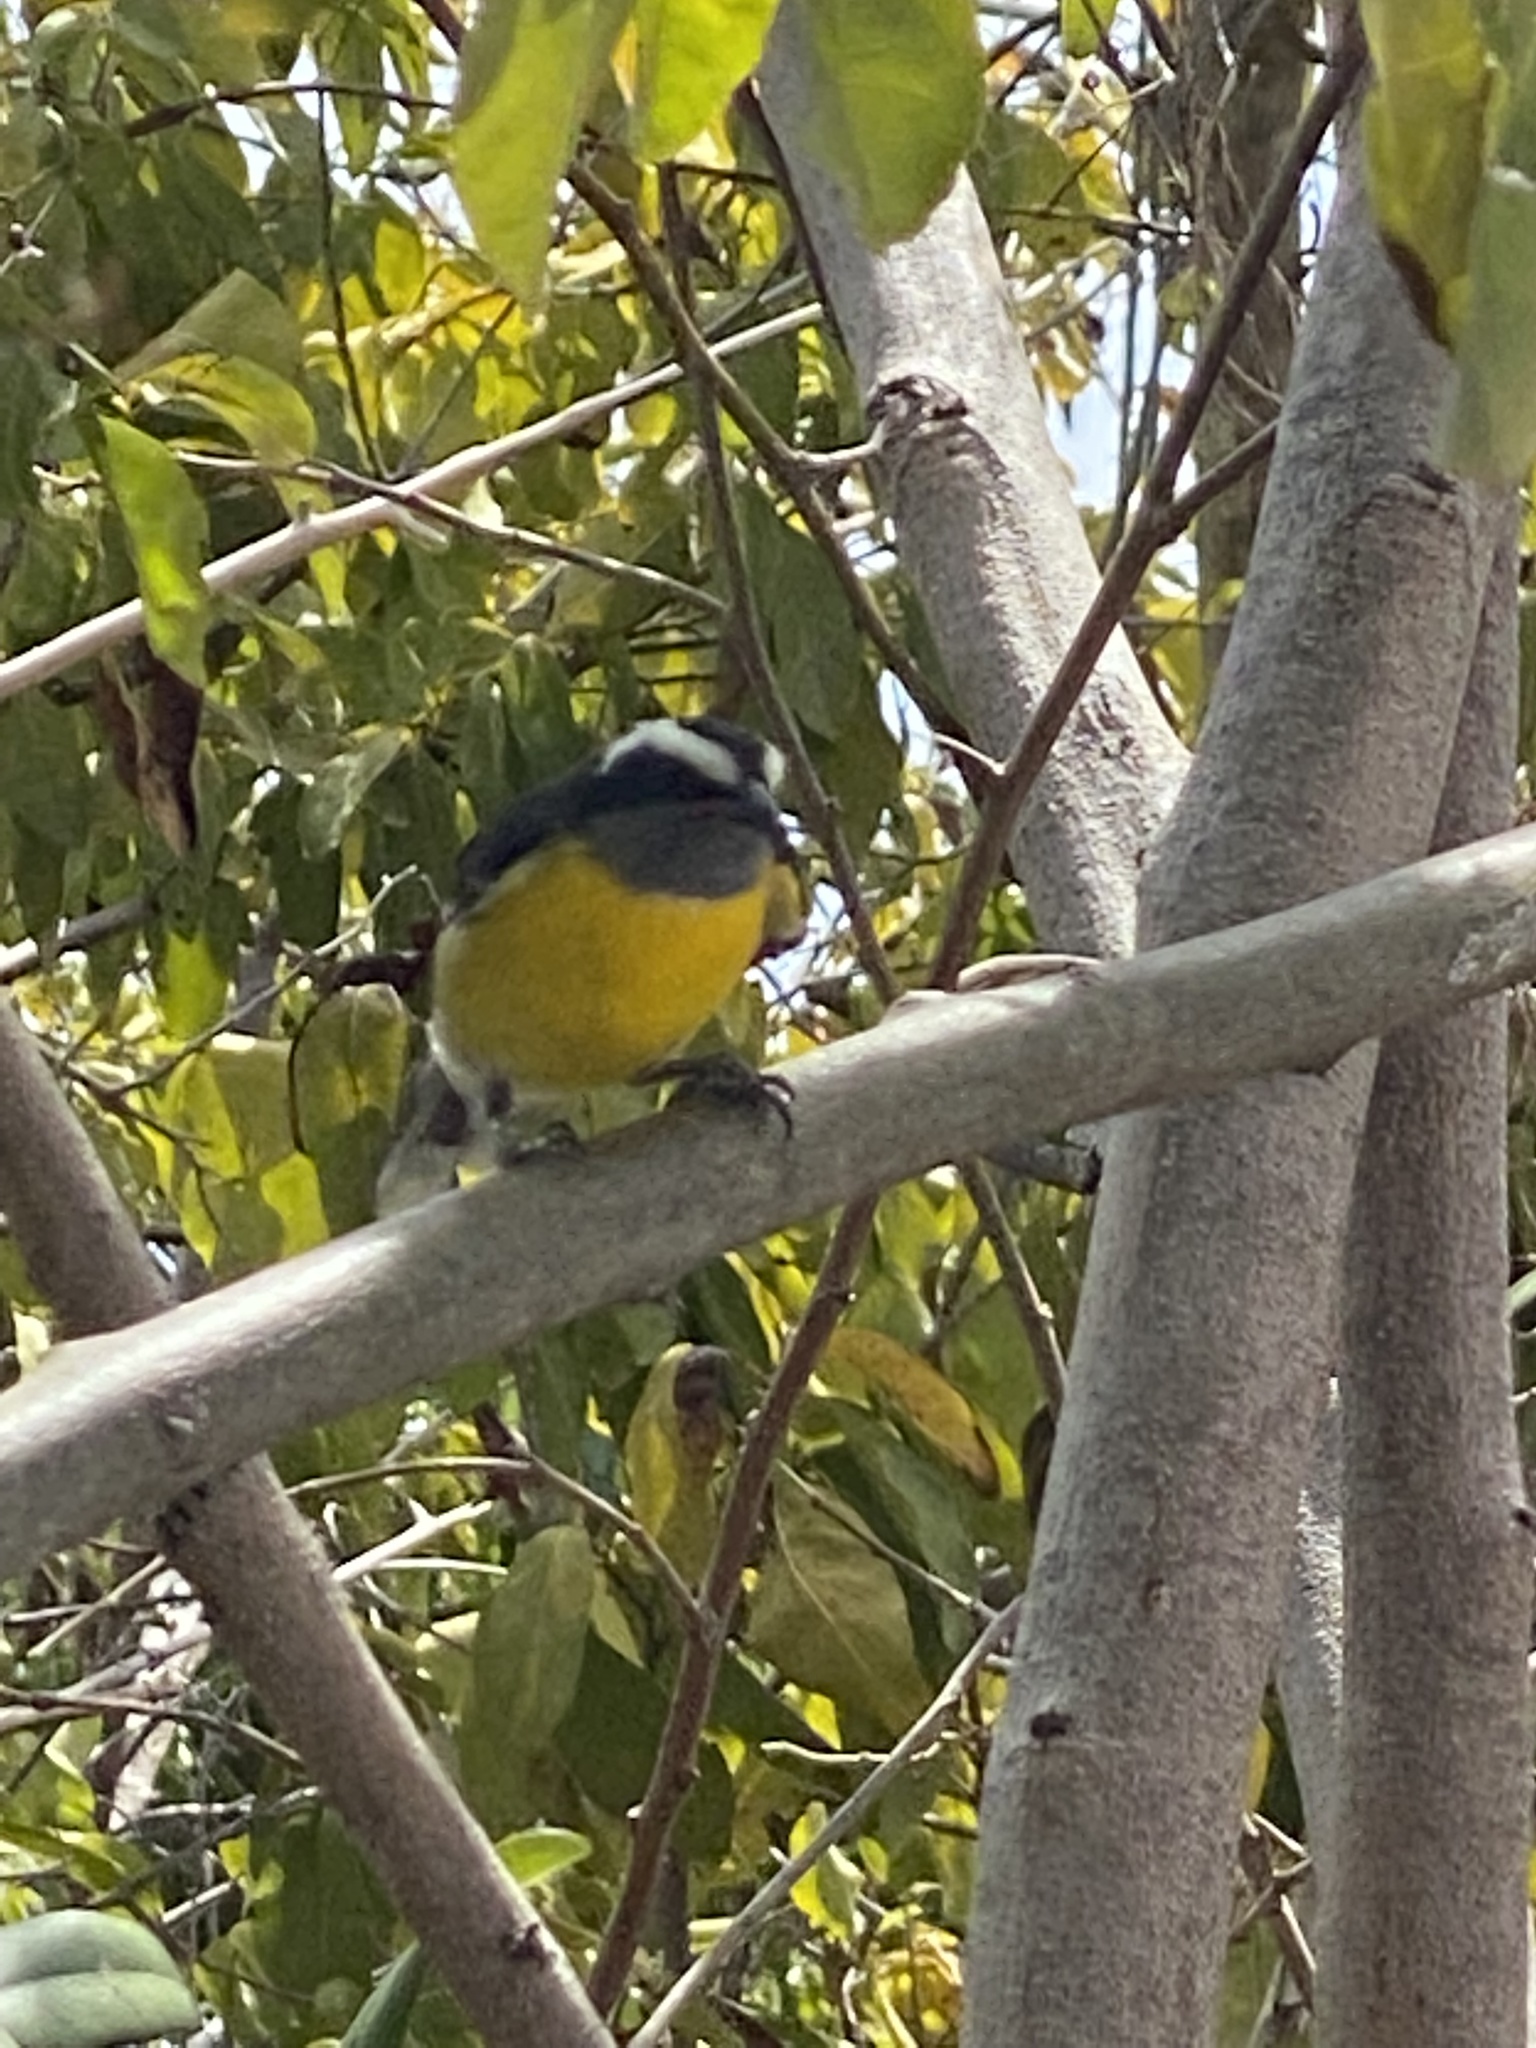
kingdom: Animalia
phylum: Chordata
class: Aves
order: Passeriformes
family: Thraupidae
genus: Coereba
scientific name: Coereba flaveola
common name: Bananaquit
